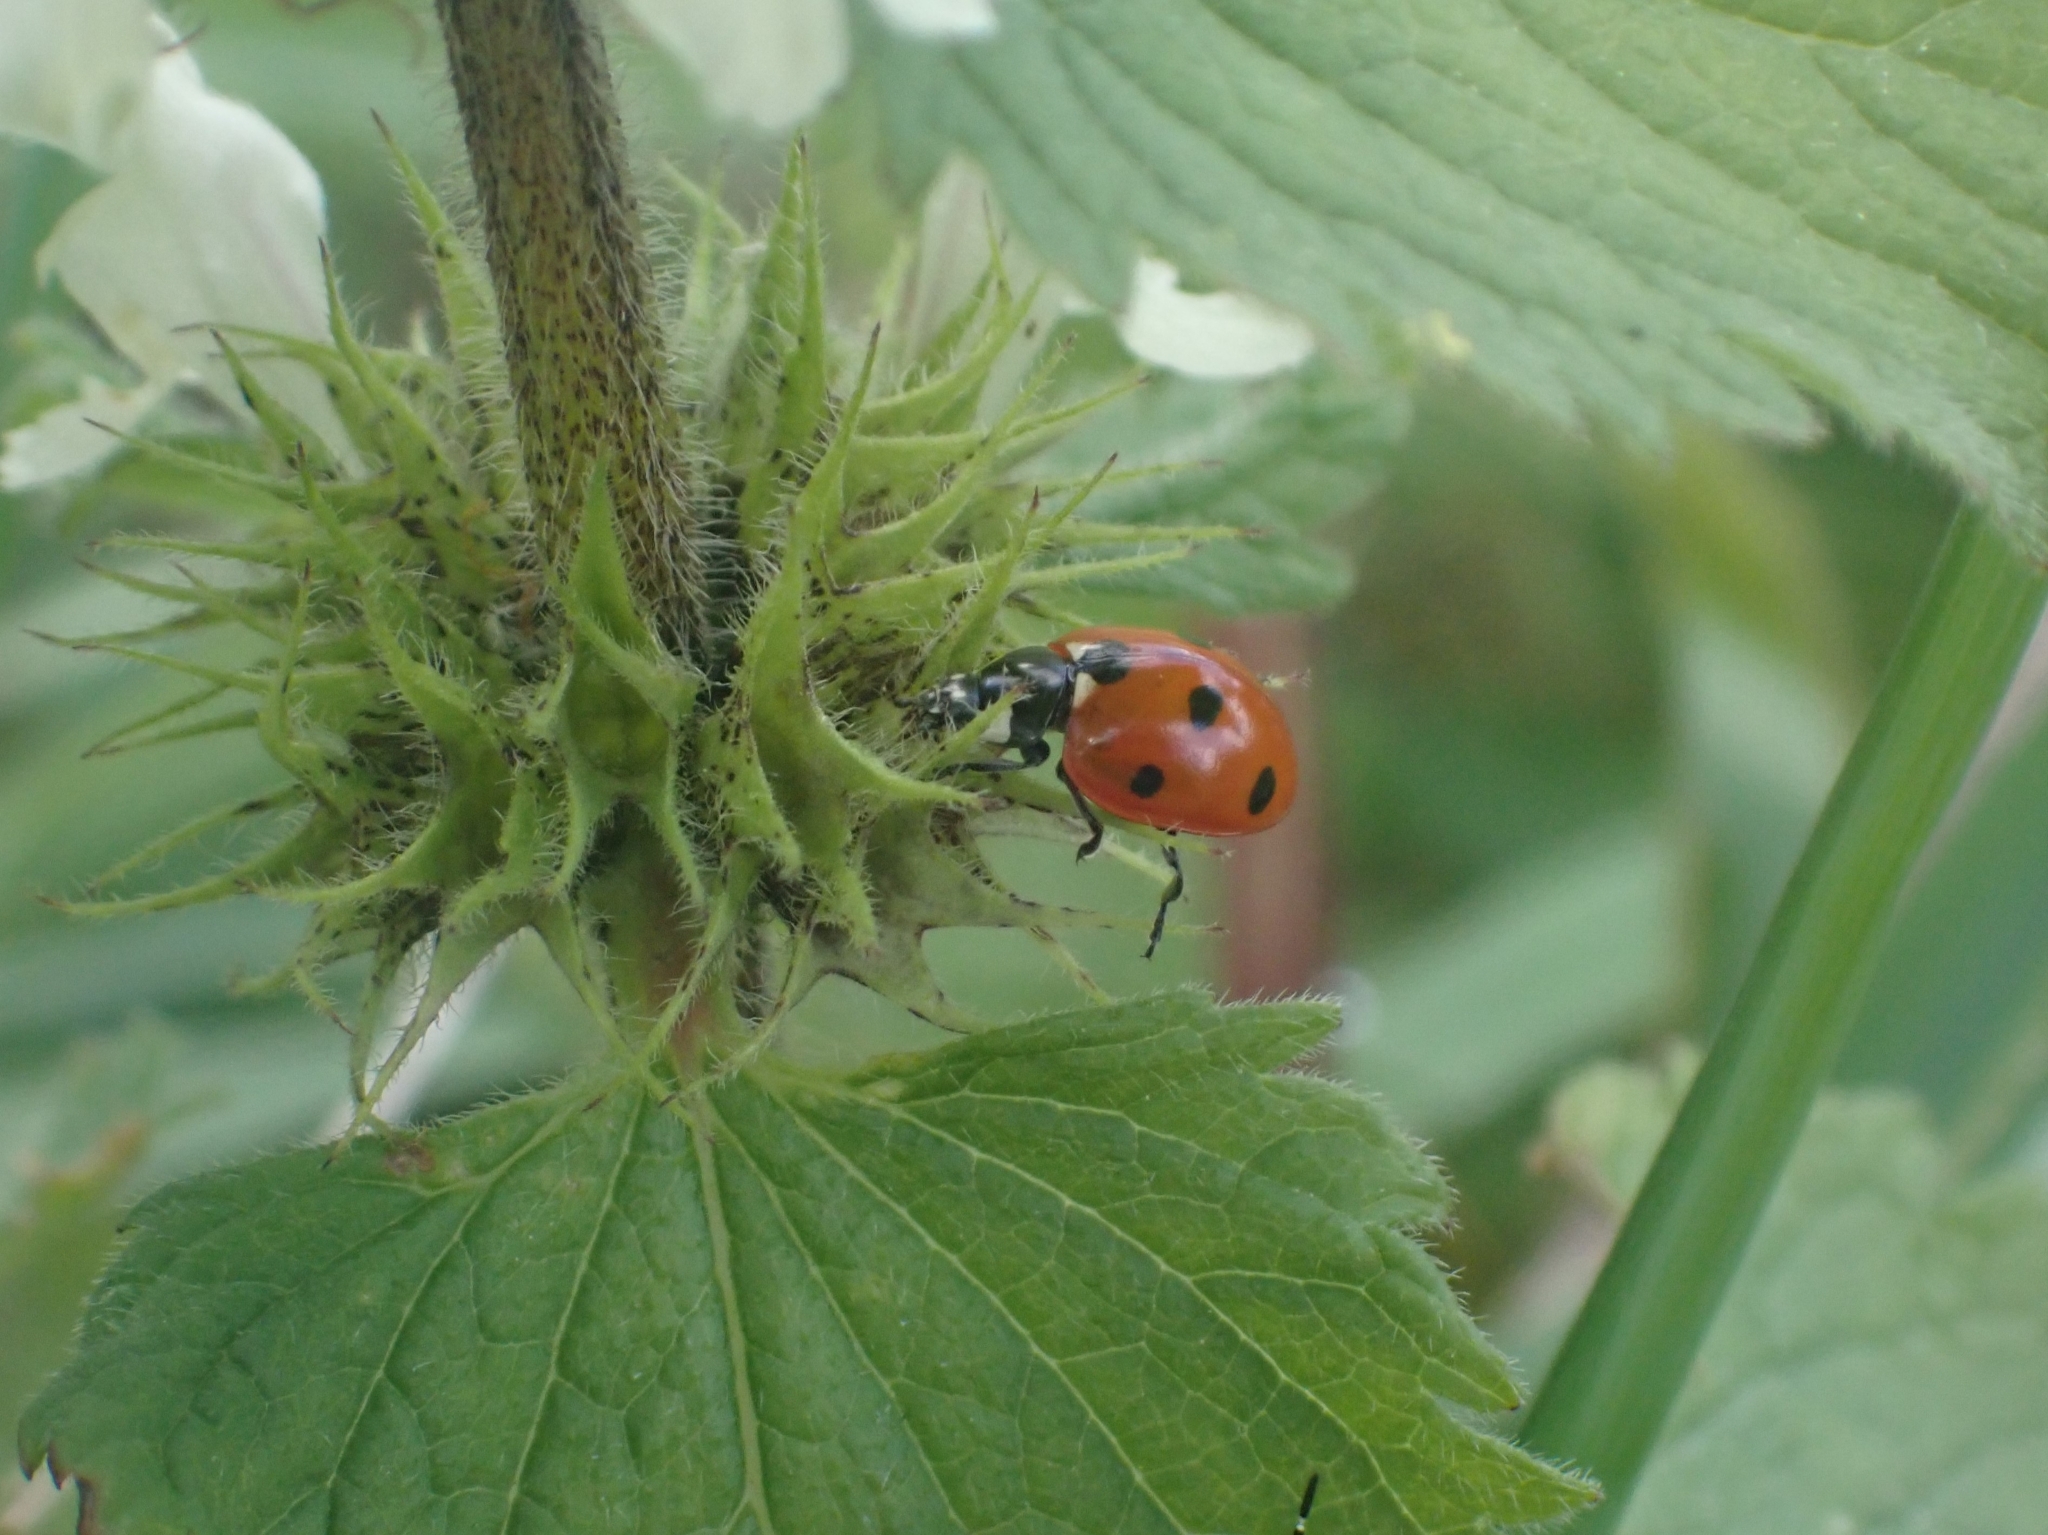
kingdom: Animalia
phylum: Arthropoda
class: Insecta
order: Coleoptera
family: Coccinellidae
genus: Coccinella
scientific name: Coccinella septempunctata
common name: Sevenspotted lady beetle
